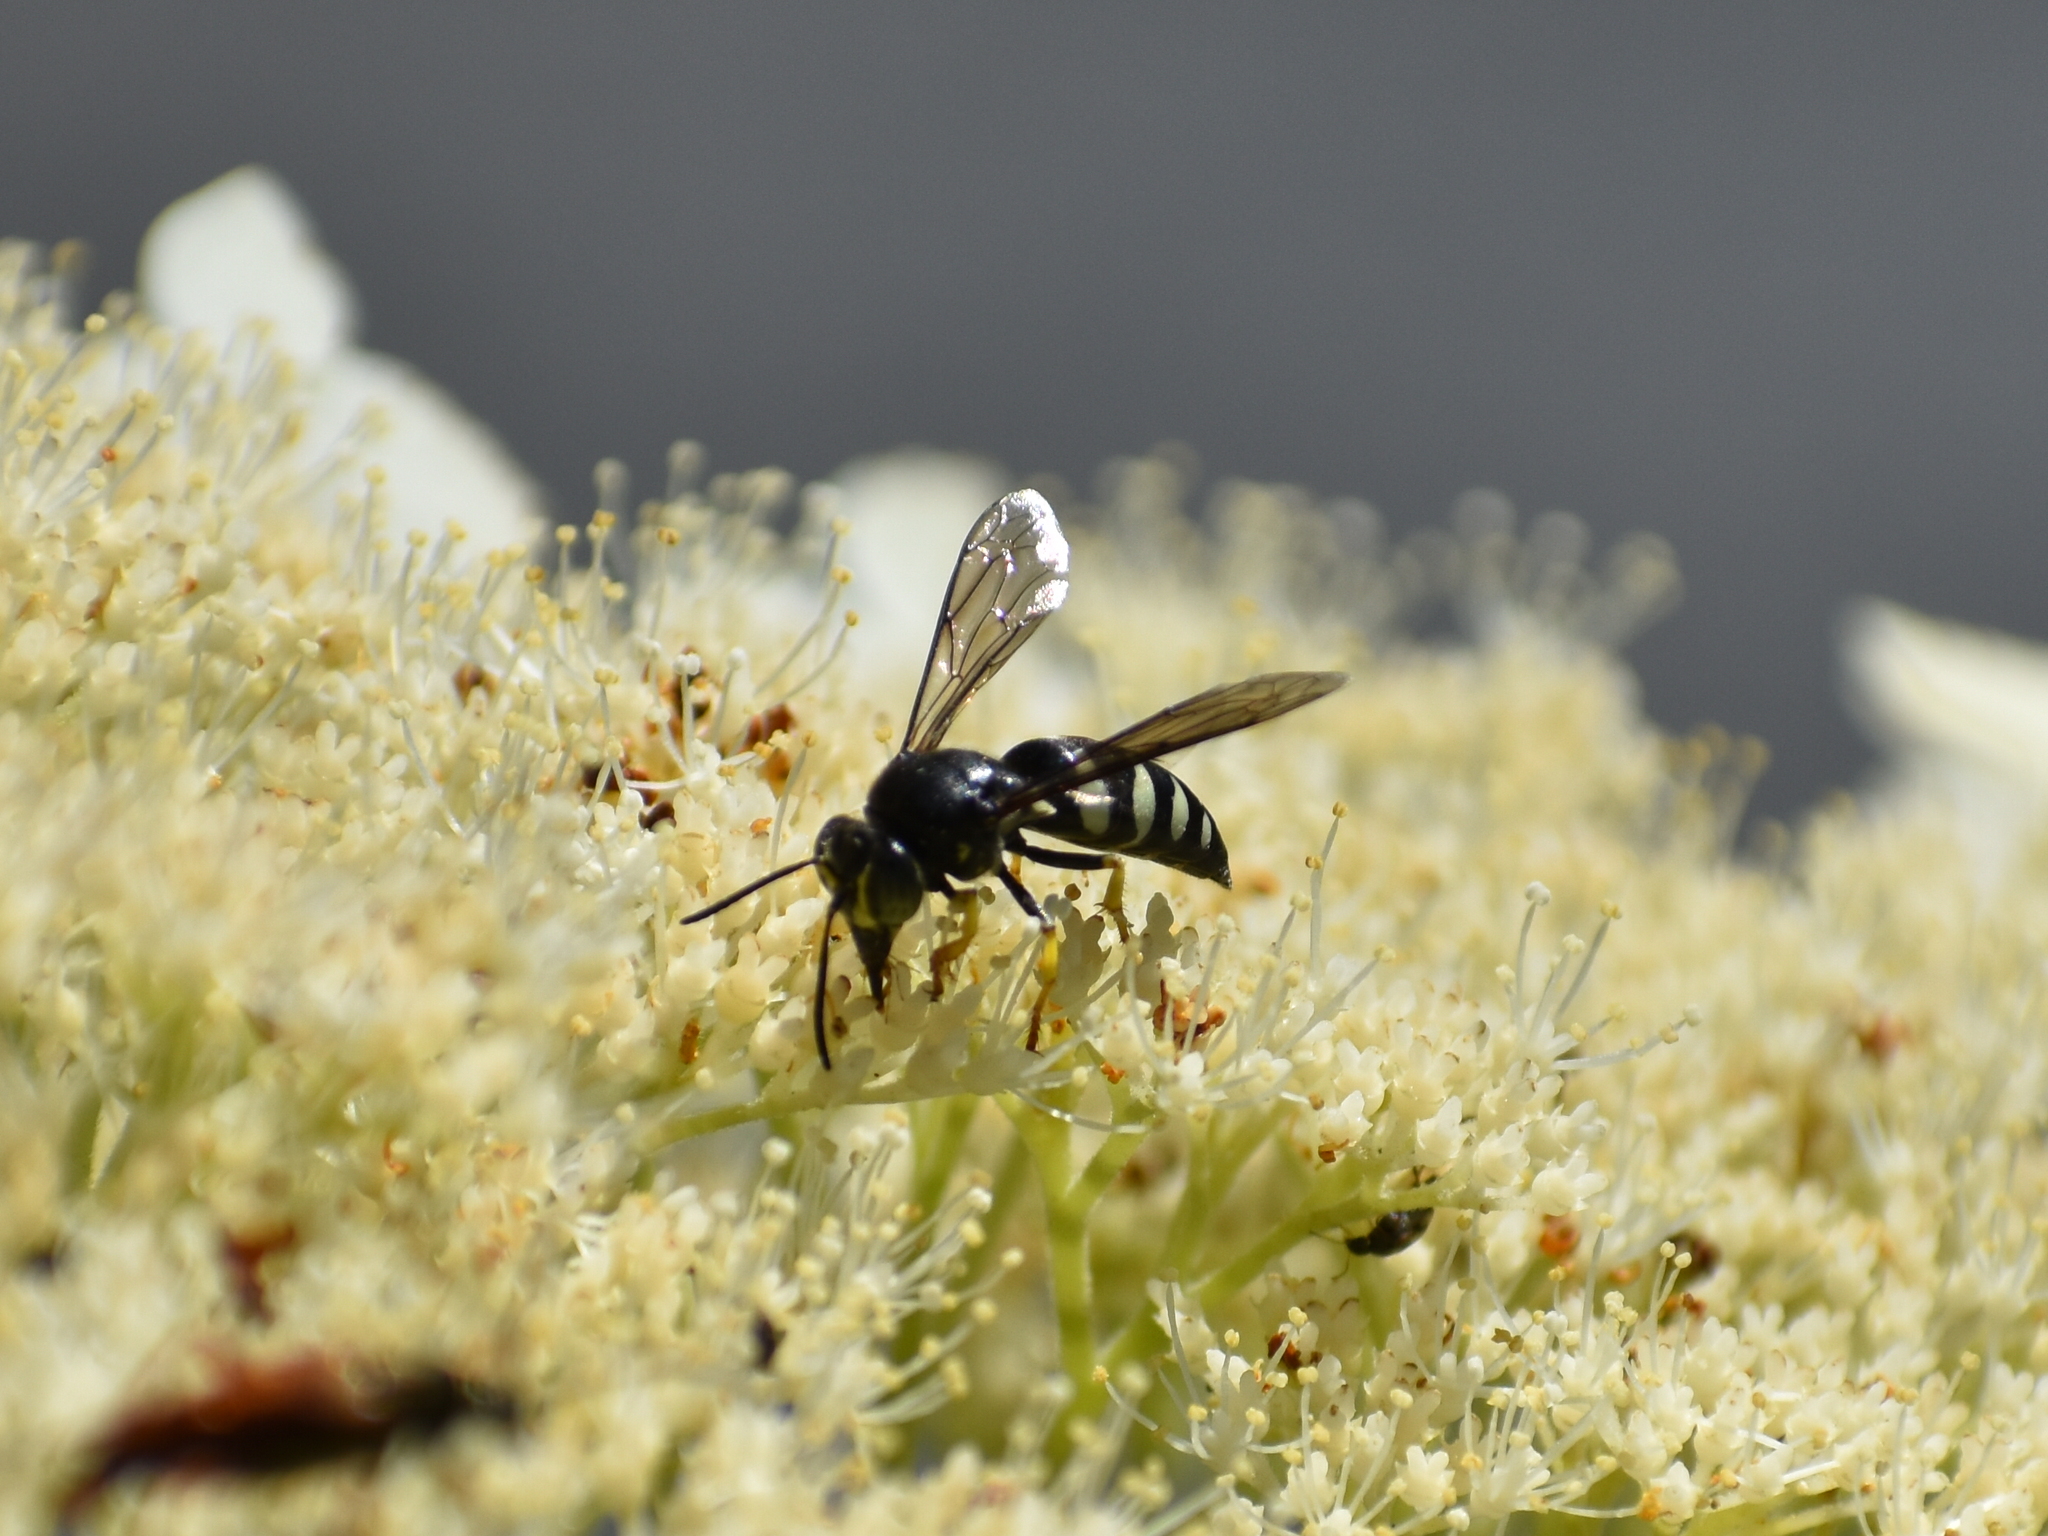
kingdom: Animalia
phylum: Arthropoda
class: Insecta
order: Hymenoptera
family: Crabronidae
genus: Bicyrtes
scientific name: Bicyrtes quadrifasciatus
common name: Four-banded stink bug hunter wasp
